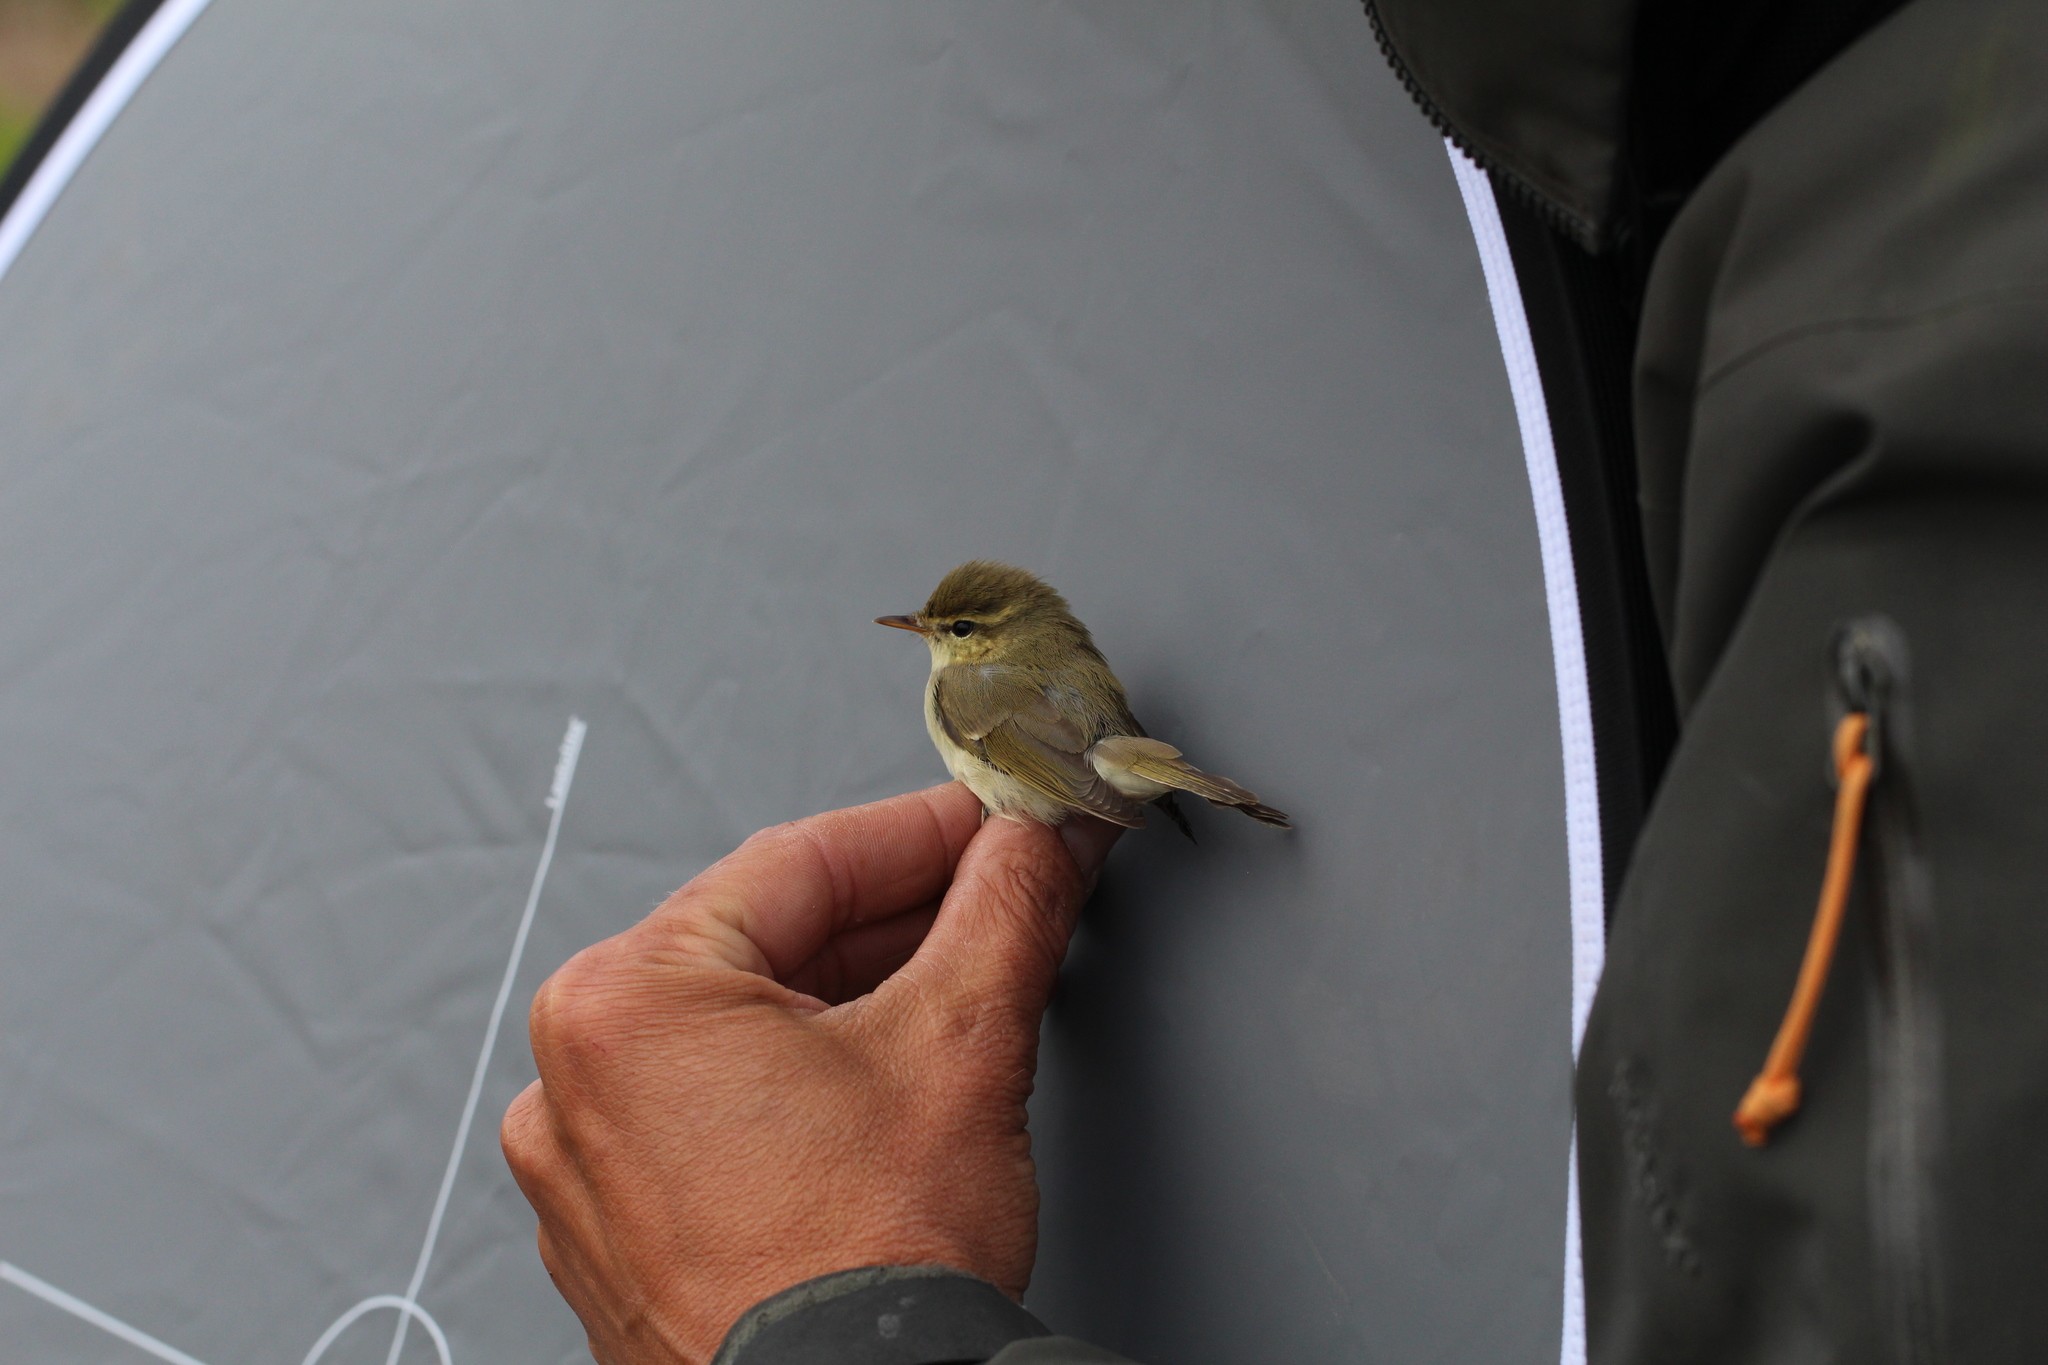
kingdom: Animalia
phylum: Chordata
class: Aves
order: Passeriformes
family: Phylloscopidae
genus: Phylloscopus
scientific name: Phylloscopus trochiloides
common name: Greenish warbler
